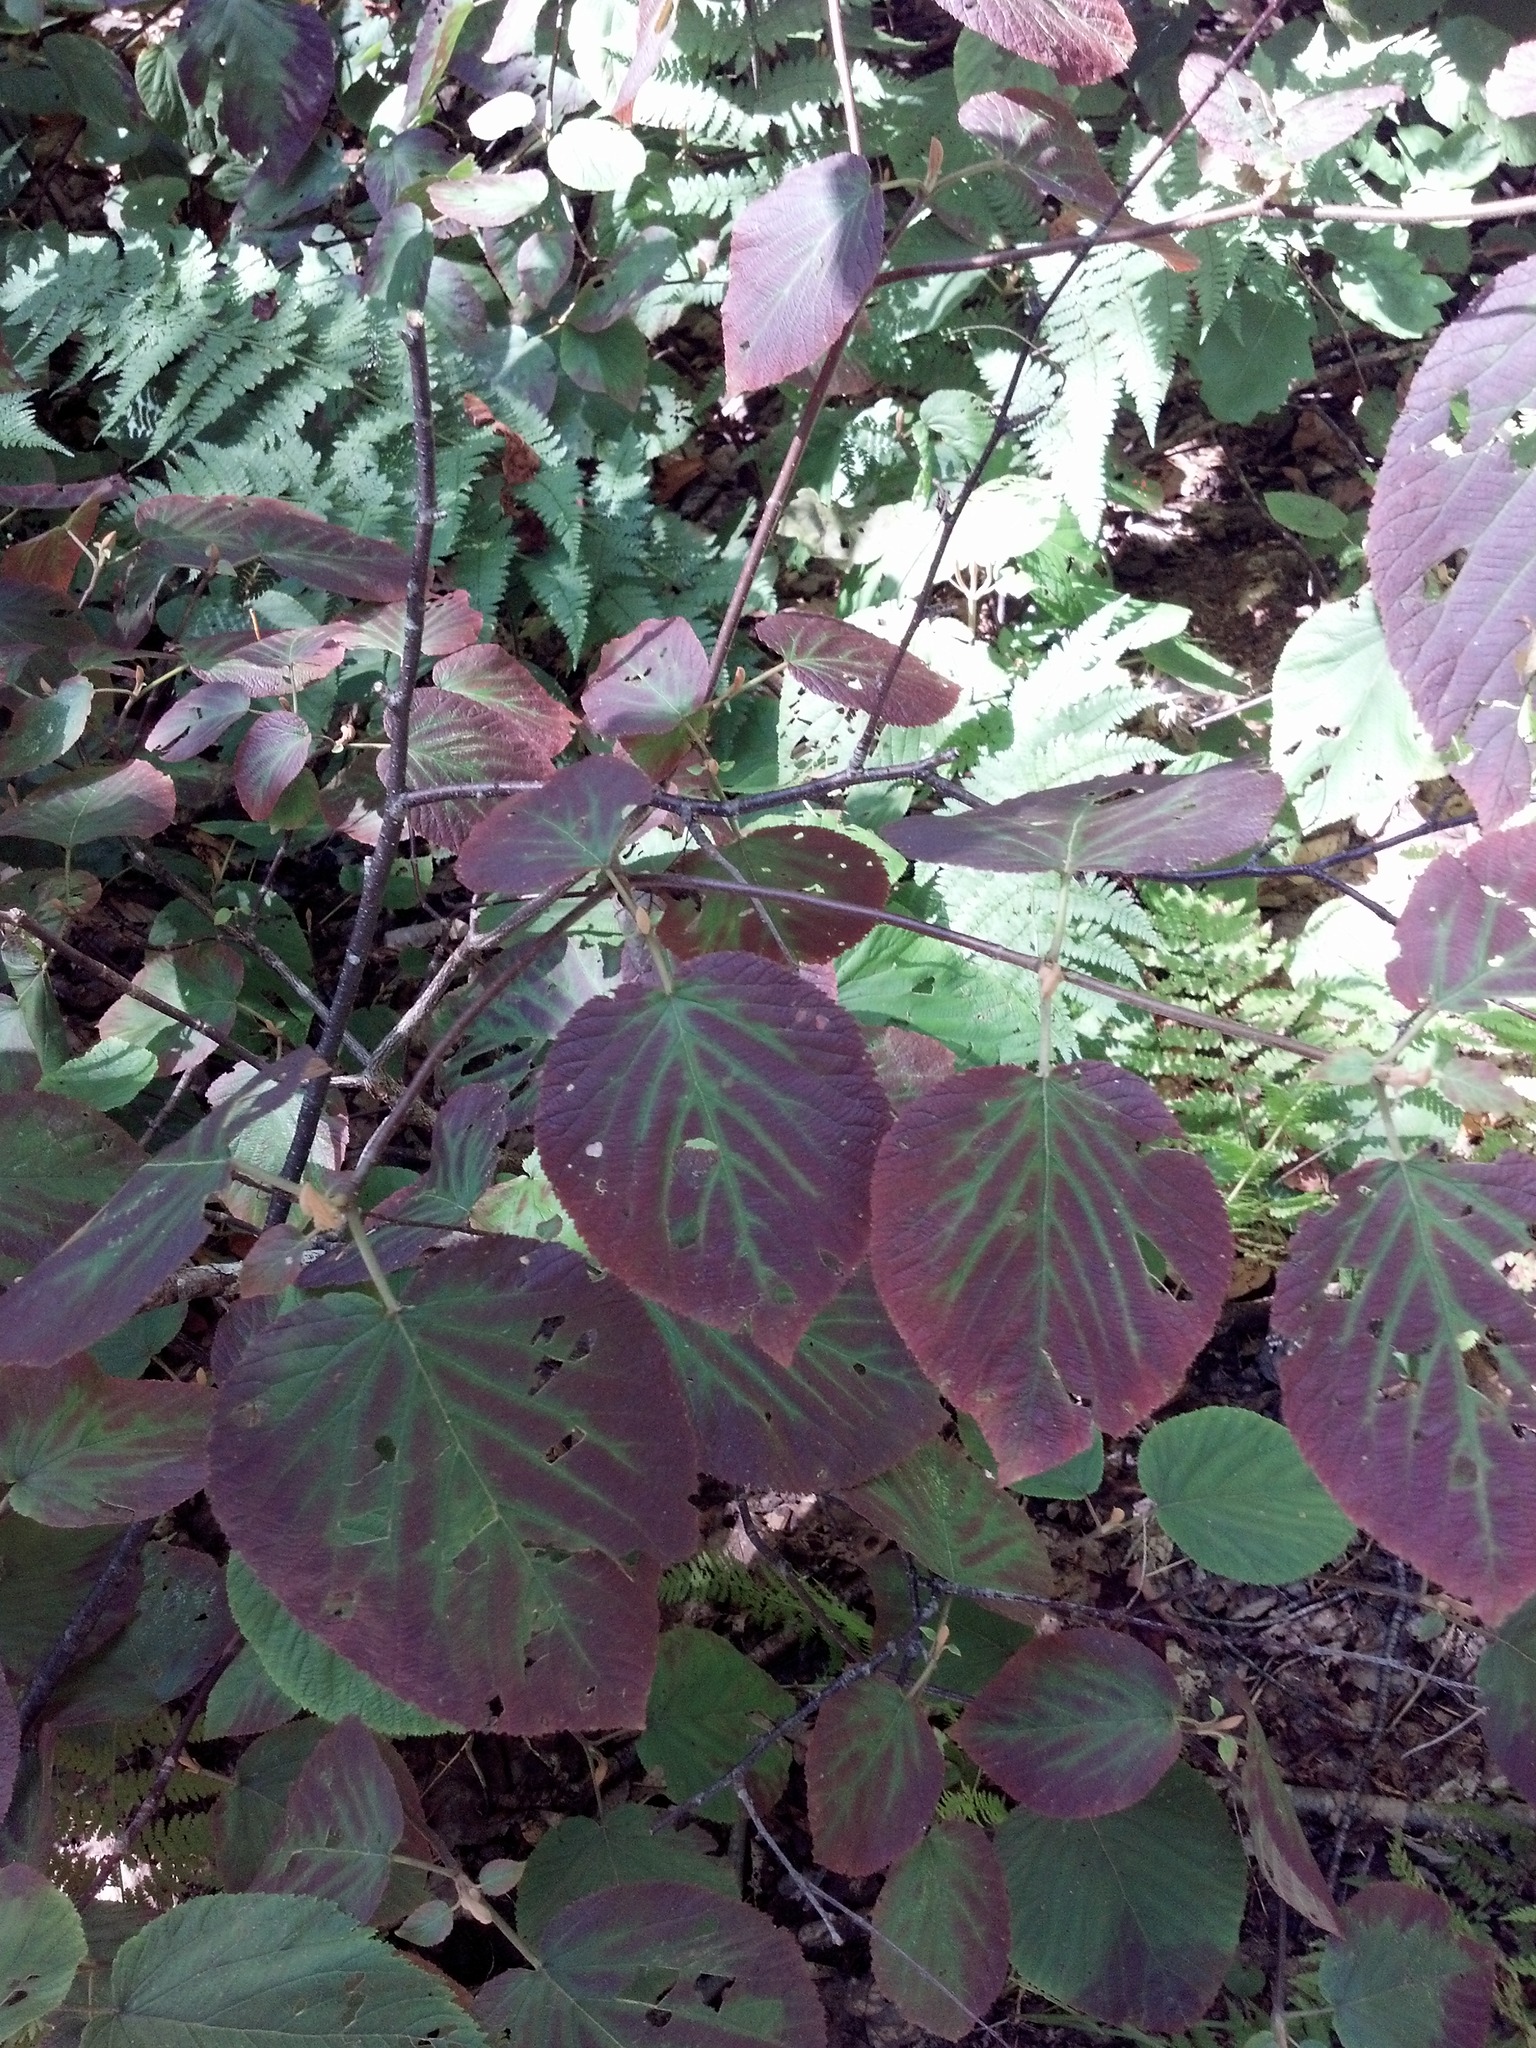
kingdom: Plantae
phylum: Tracheophyta
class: Magnoliopsida
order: Dipsacales
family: Viburnaceae
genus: Viburnum
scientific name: Viburnum lantanoides
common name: Hobblebush
